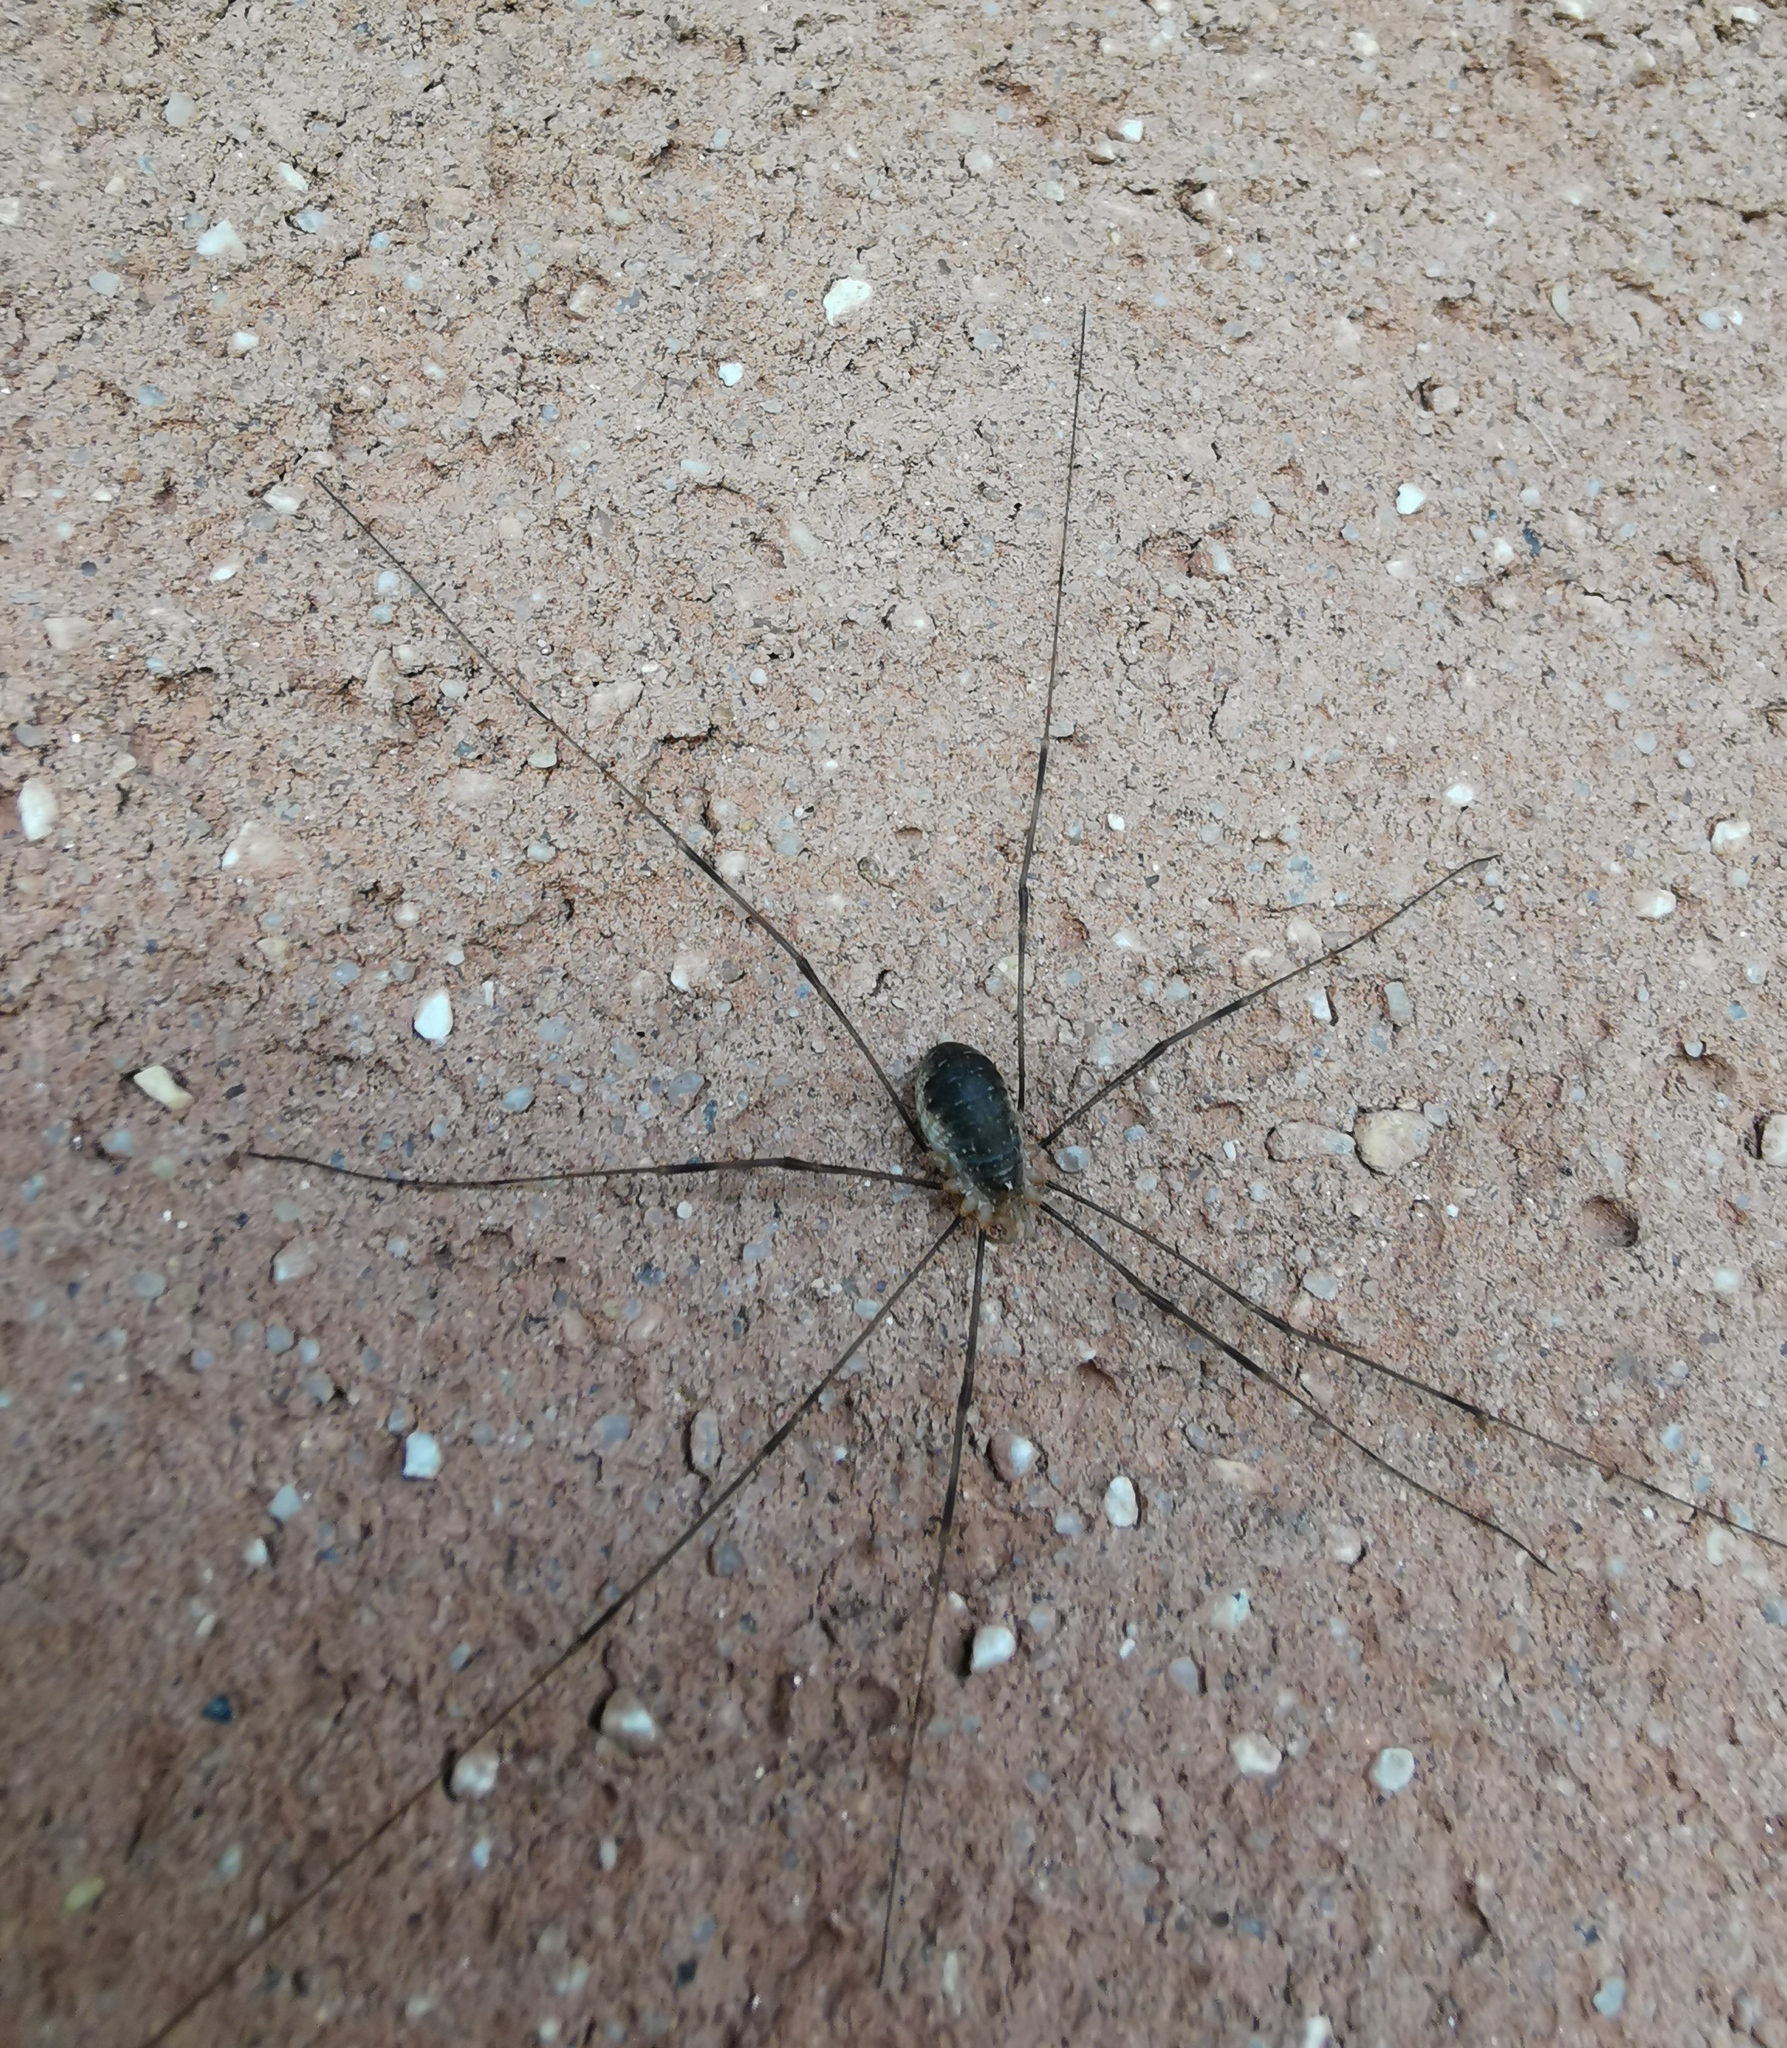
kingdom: Animalia
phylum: Arthropoda
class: Arachnida
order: Opiliones
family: Phalangiidae
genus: Opilio
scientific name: Opilio canestrinii
